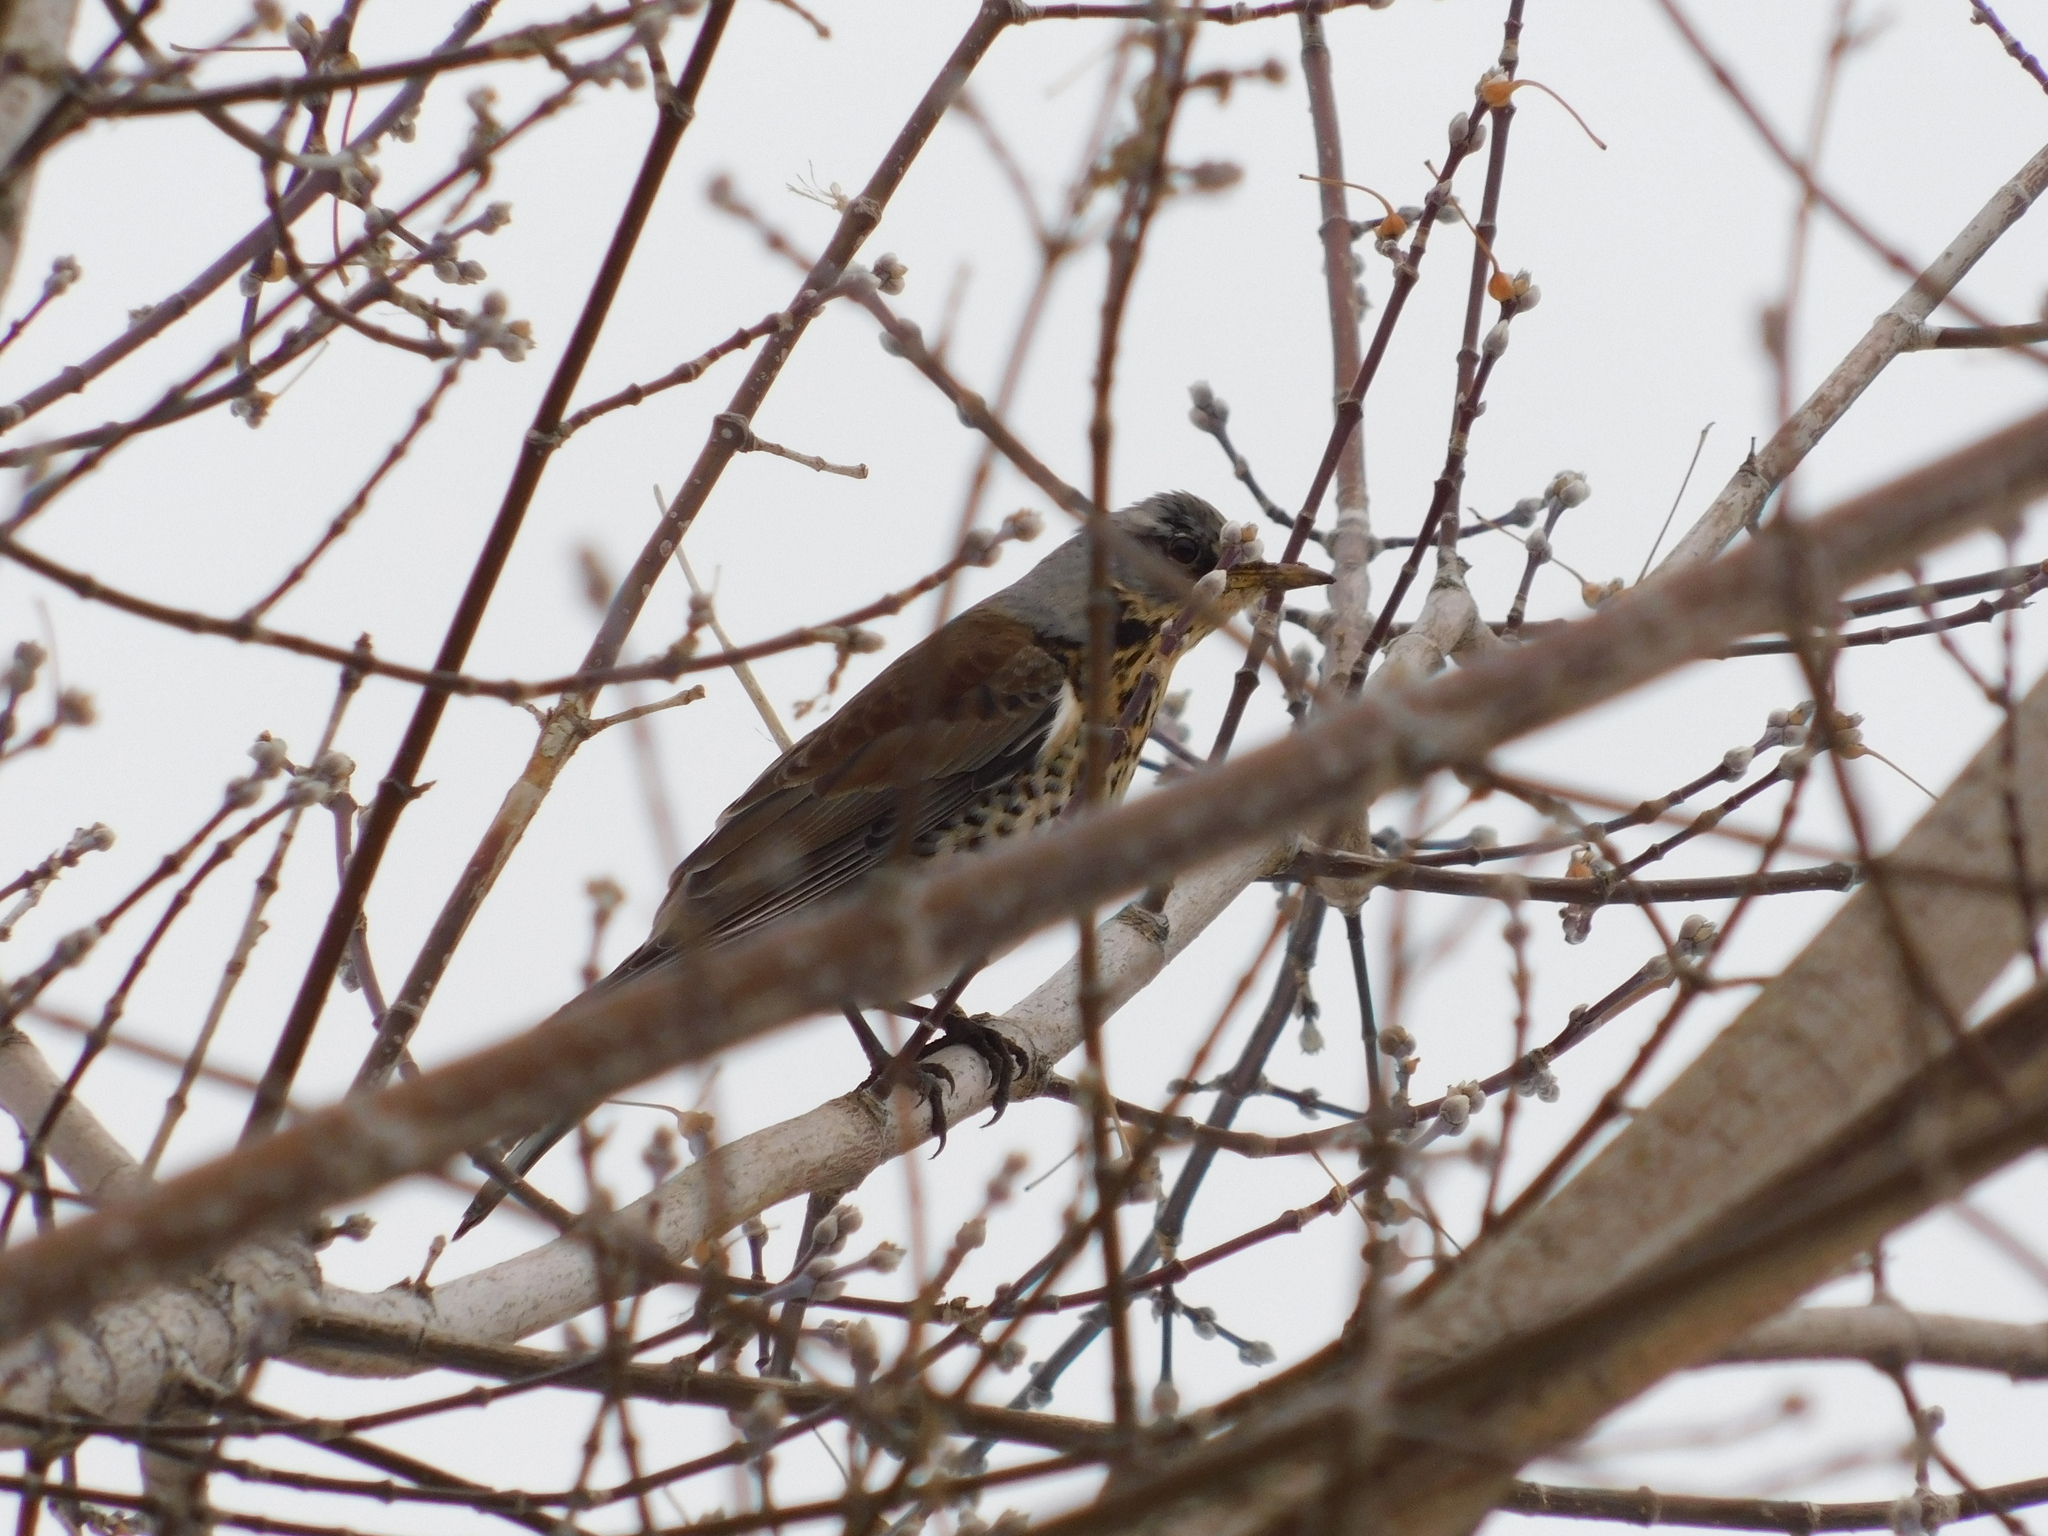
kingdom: Animalia
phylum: Chordata
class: Aves
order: Passeriformes
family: Turdidae
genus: Turdus
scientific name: Turdus pilaris
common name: Fieldfare
